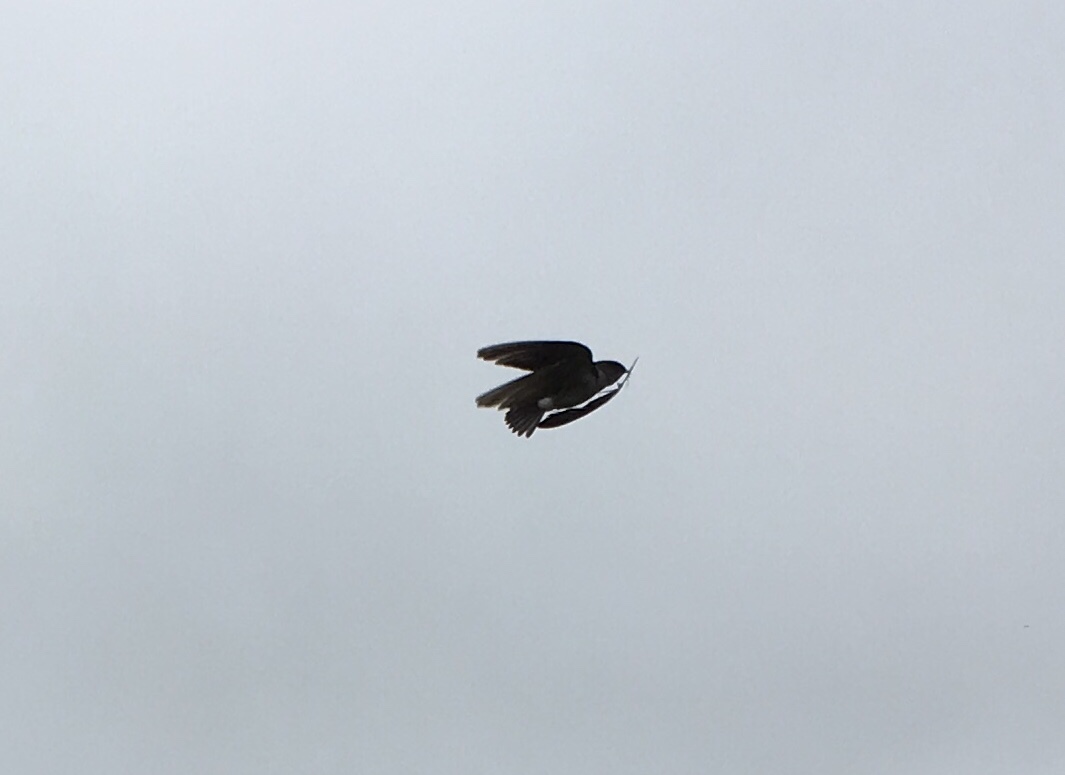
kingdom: Animalia
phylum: Chordata
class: Aves
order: Passeriformes
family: Hirundinidae
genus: Tachycineta
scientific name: Tachycineta thalassina
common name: Violet-green swallow
